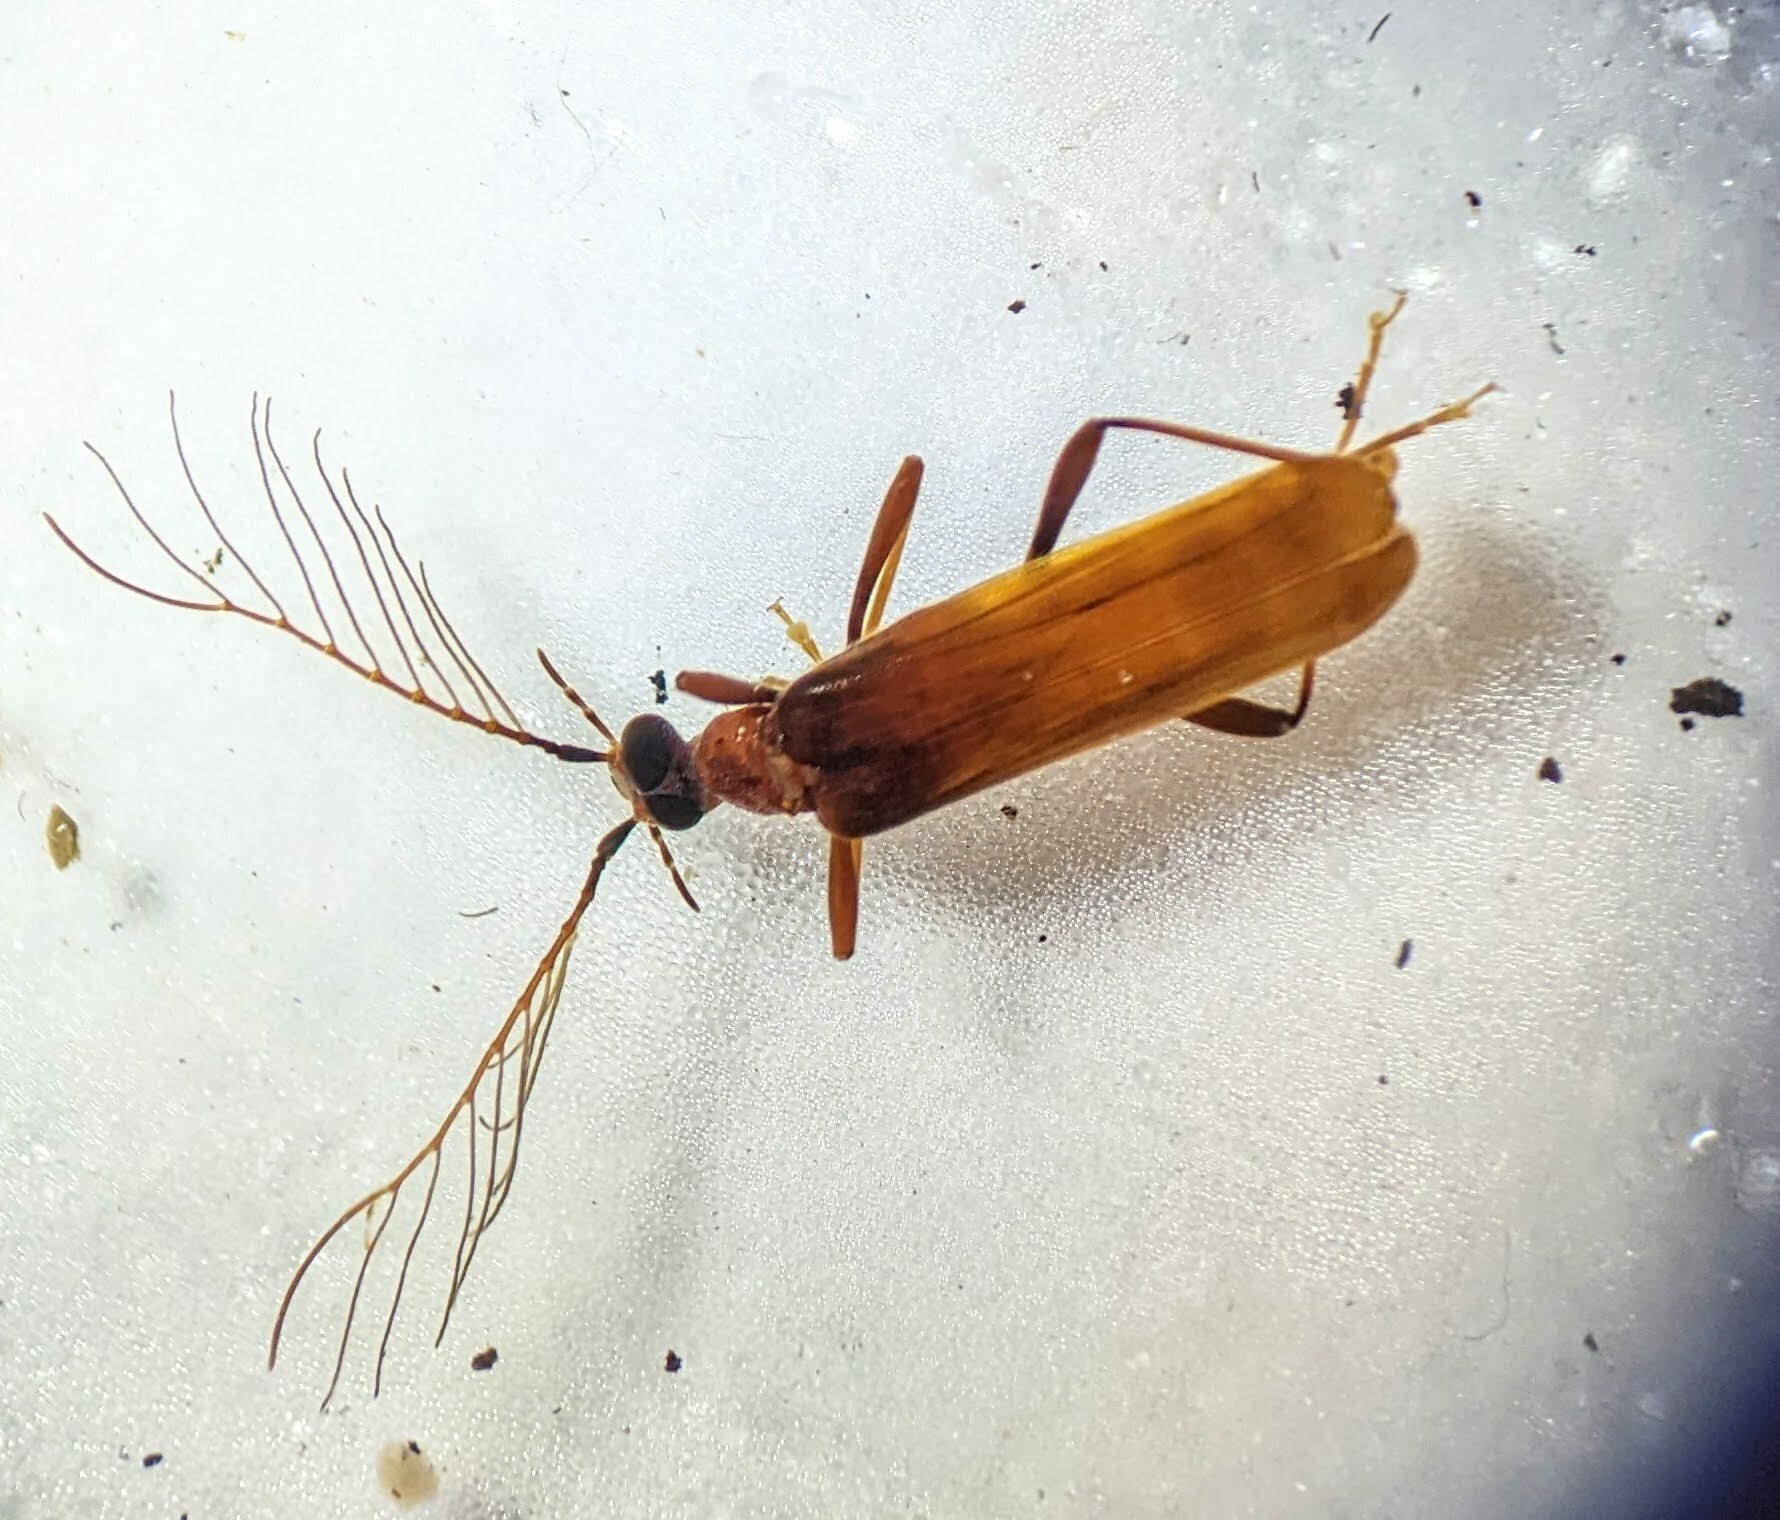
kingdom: Animalia
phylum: Arthropoda
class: Insecta
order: Coleoptera
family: Pyrochroidae
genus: Dendroides
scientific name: Dendroides concolor
